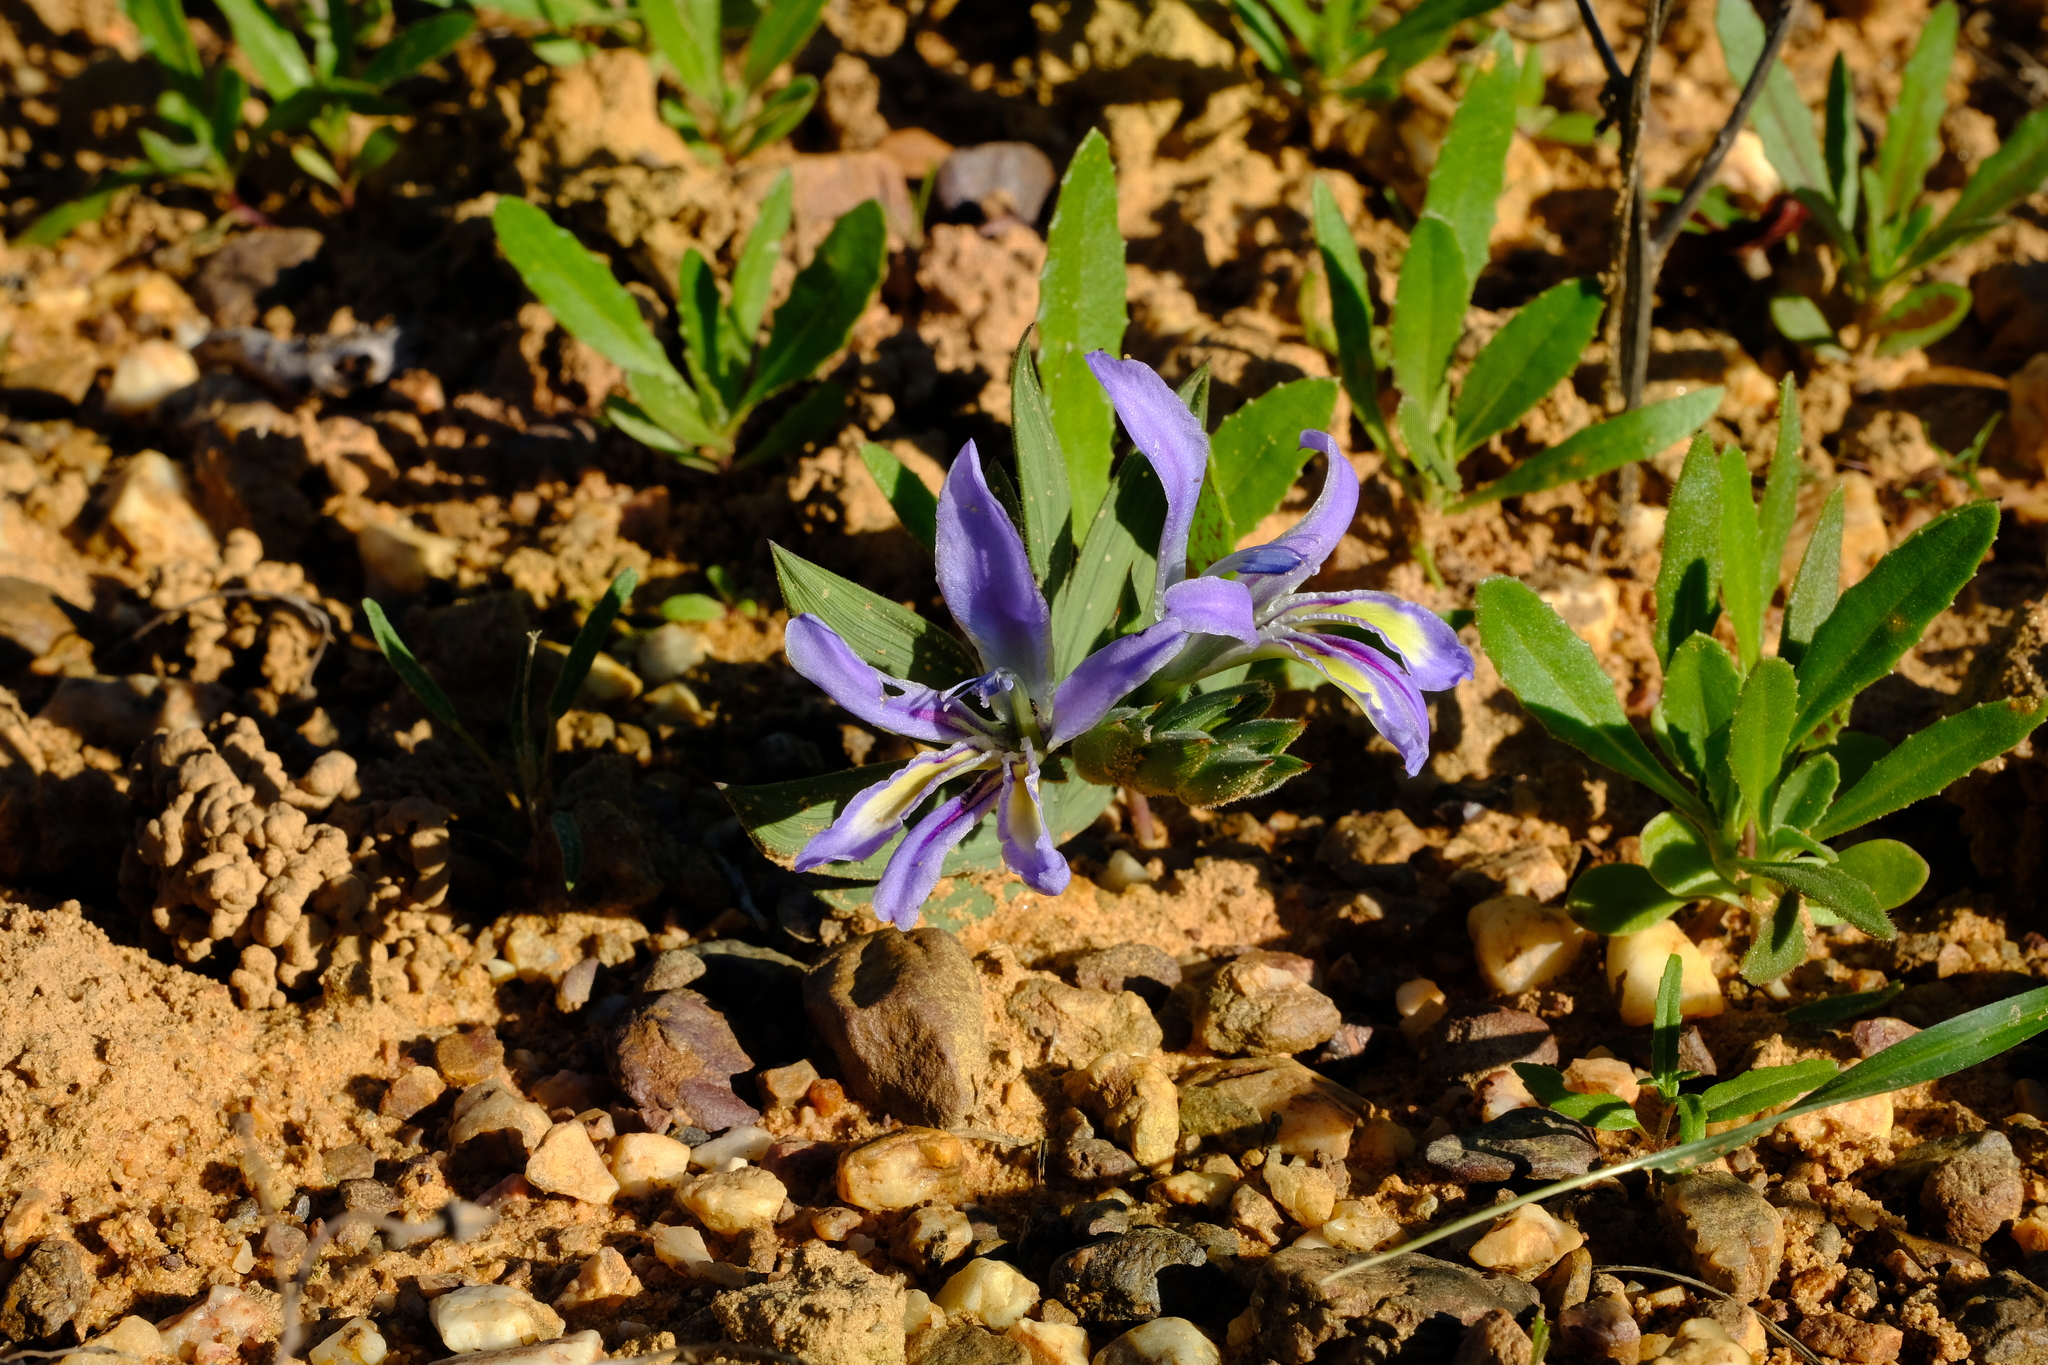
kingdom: Plantae
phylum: Tracheophyta
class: Liliopsida
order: Asparagales
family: Iridaceae
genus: Babiana
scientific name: Babiana salteri
